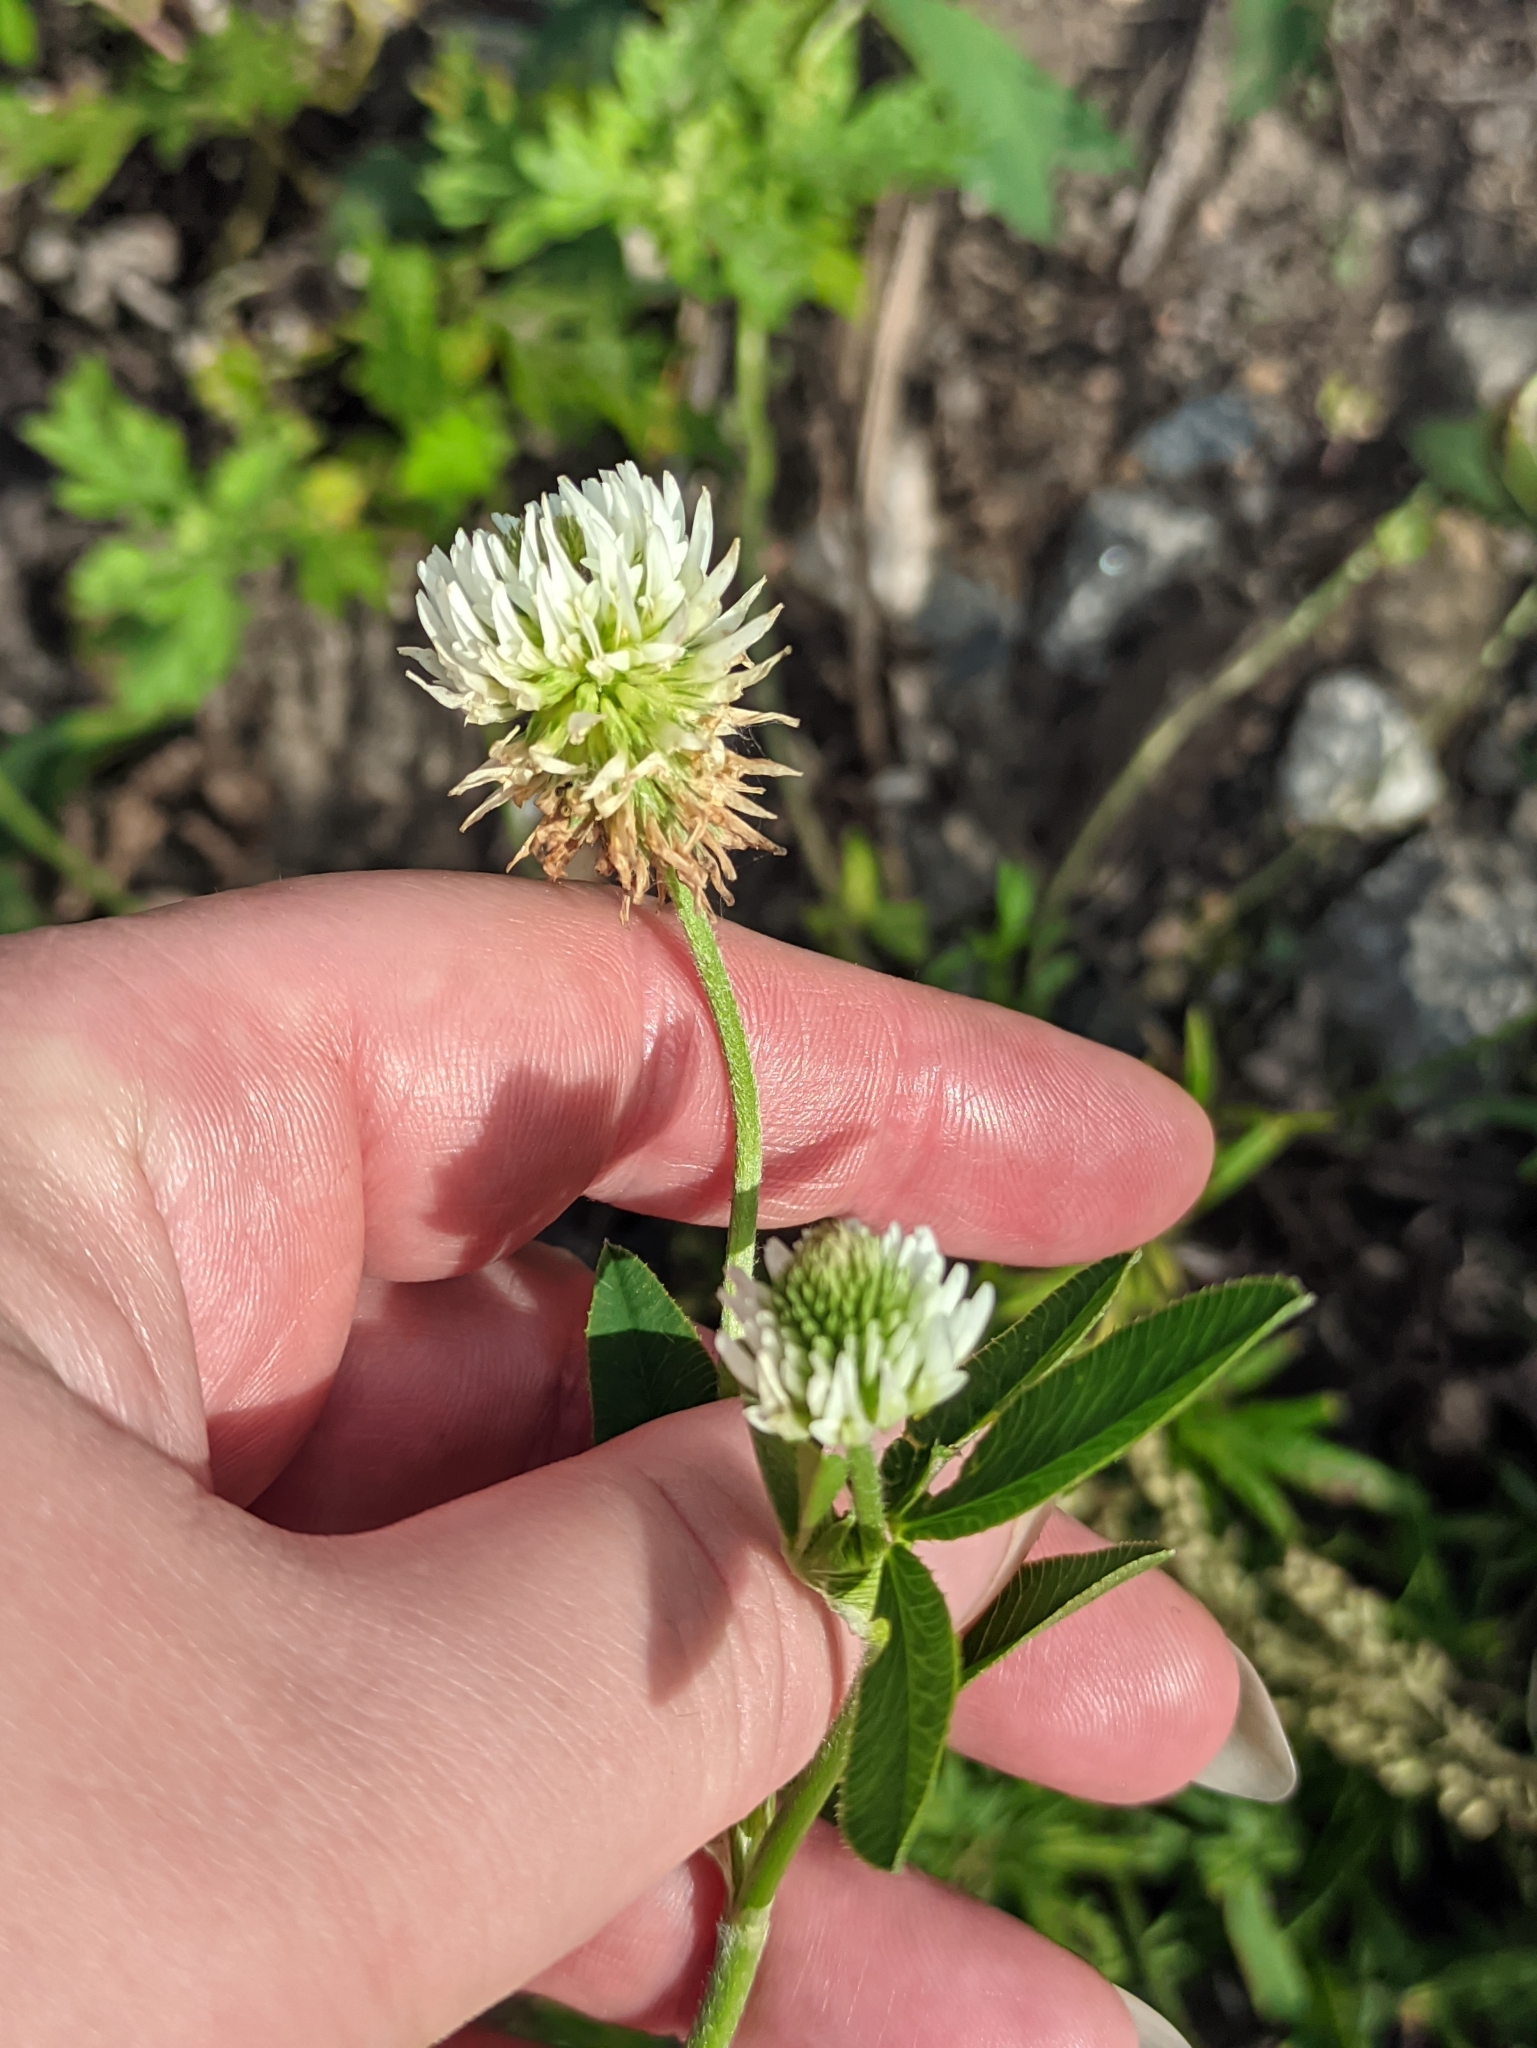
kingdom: Plantae
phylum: Tracheophyta
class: Magnoliopsida
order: Fabales
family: Fabaceae
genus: Trifolium
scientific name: Trifolium montanum
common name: Mountain clover
